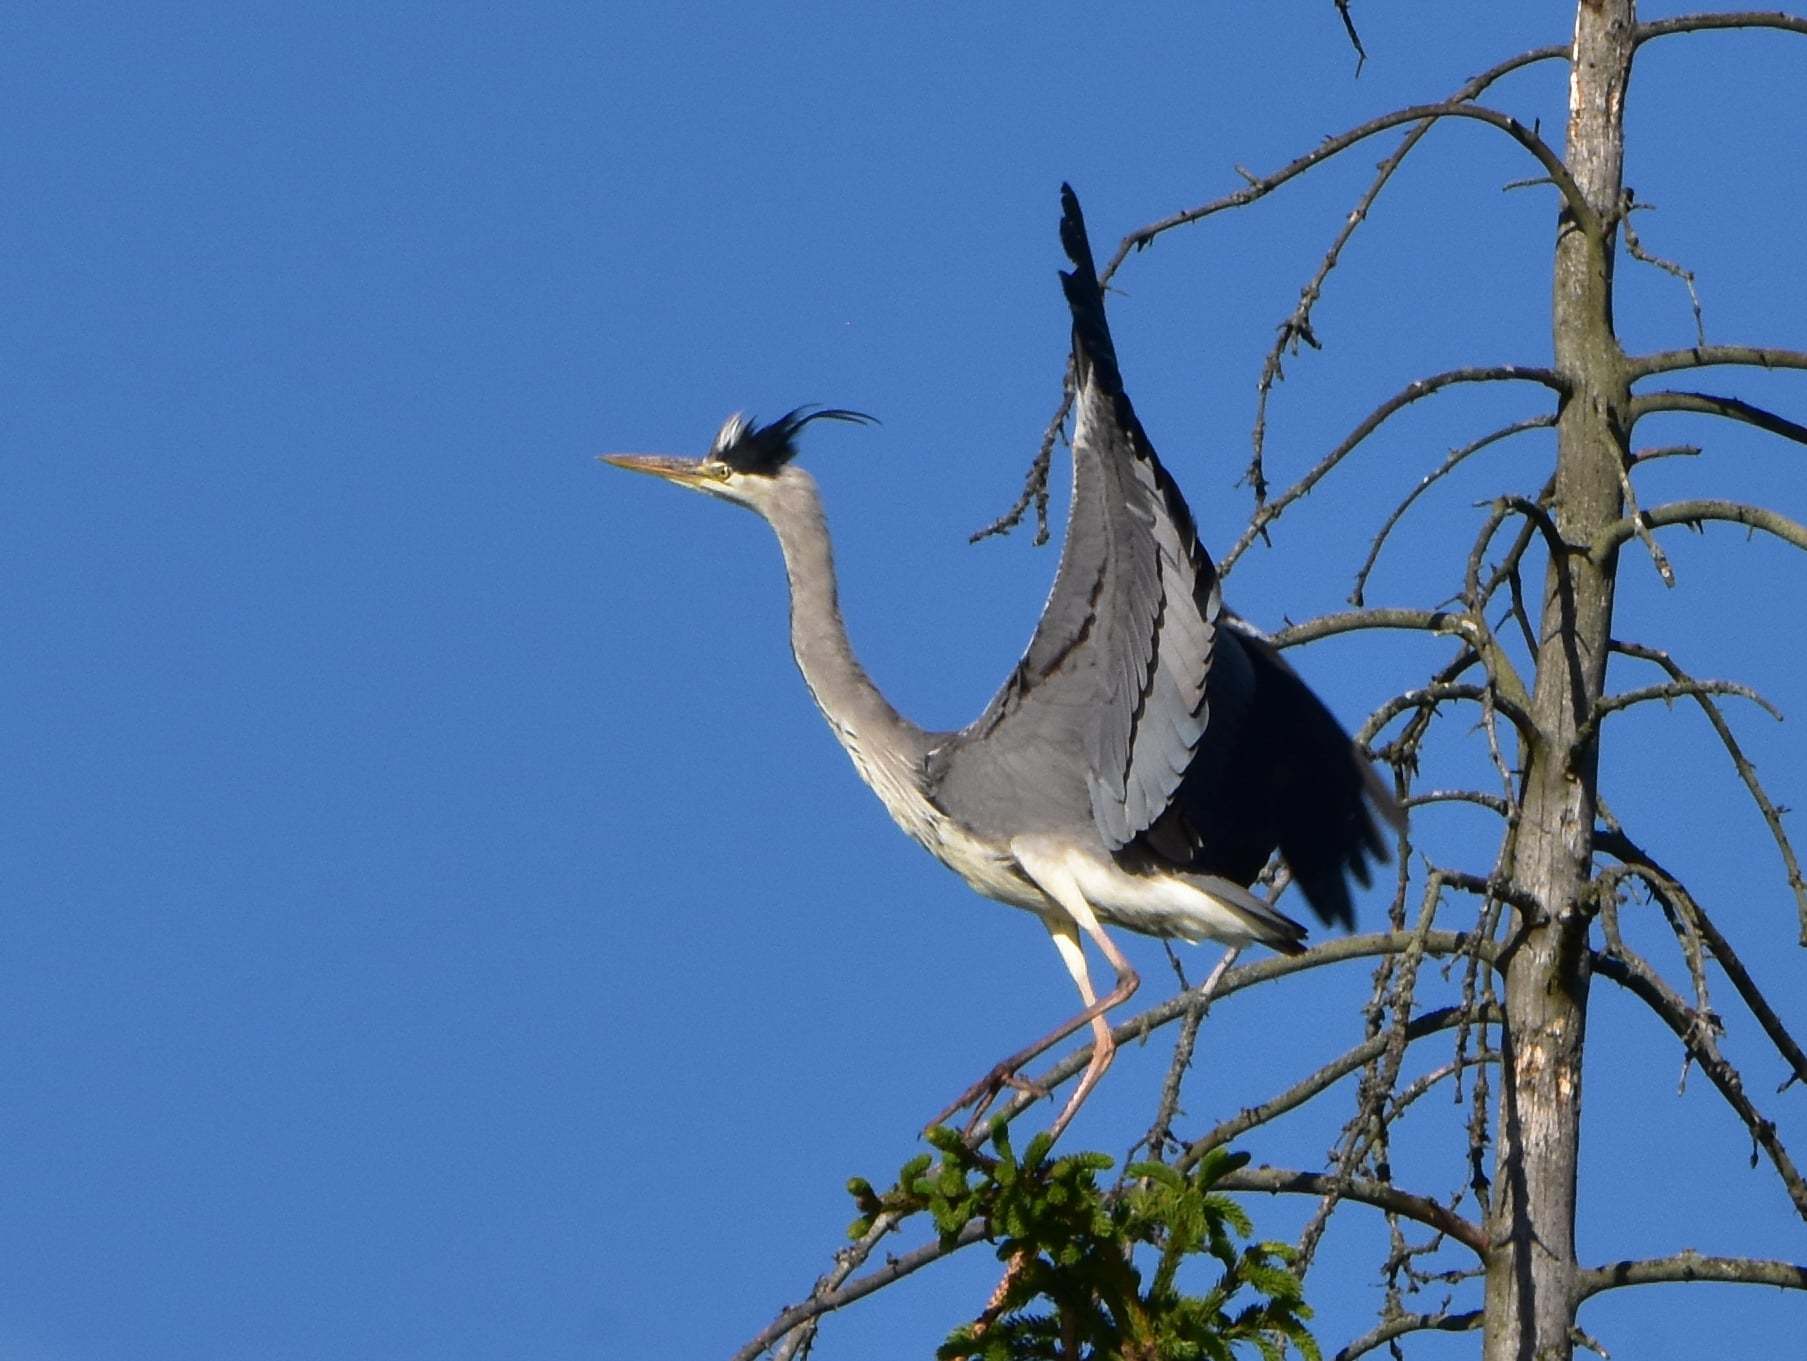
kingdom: Animalia
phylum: Chordata
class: Aves
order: Pelecaniformes
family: Ardeidae
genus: Ardea
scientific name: Ardea cinerea
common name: Grey heron
